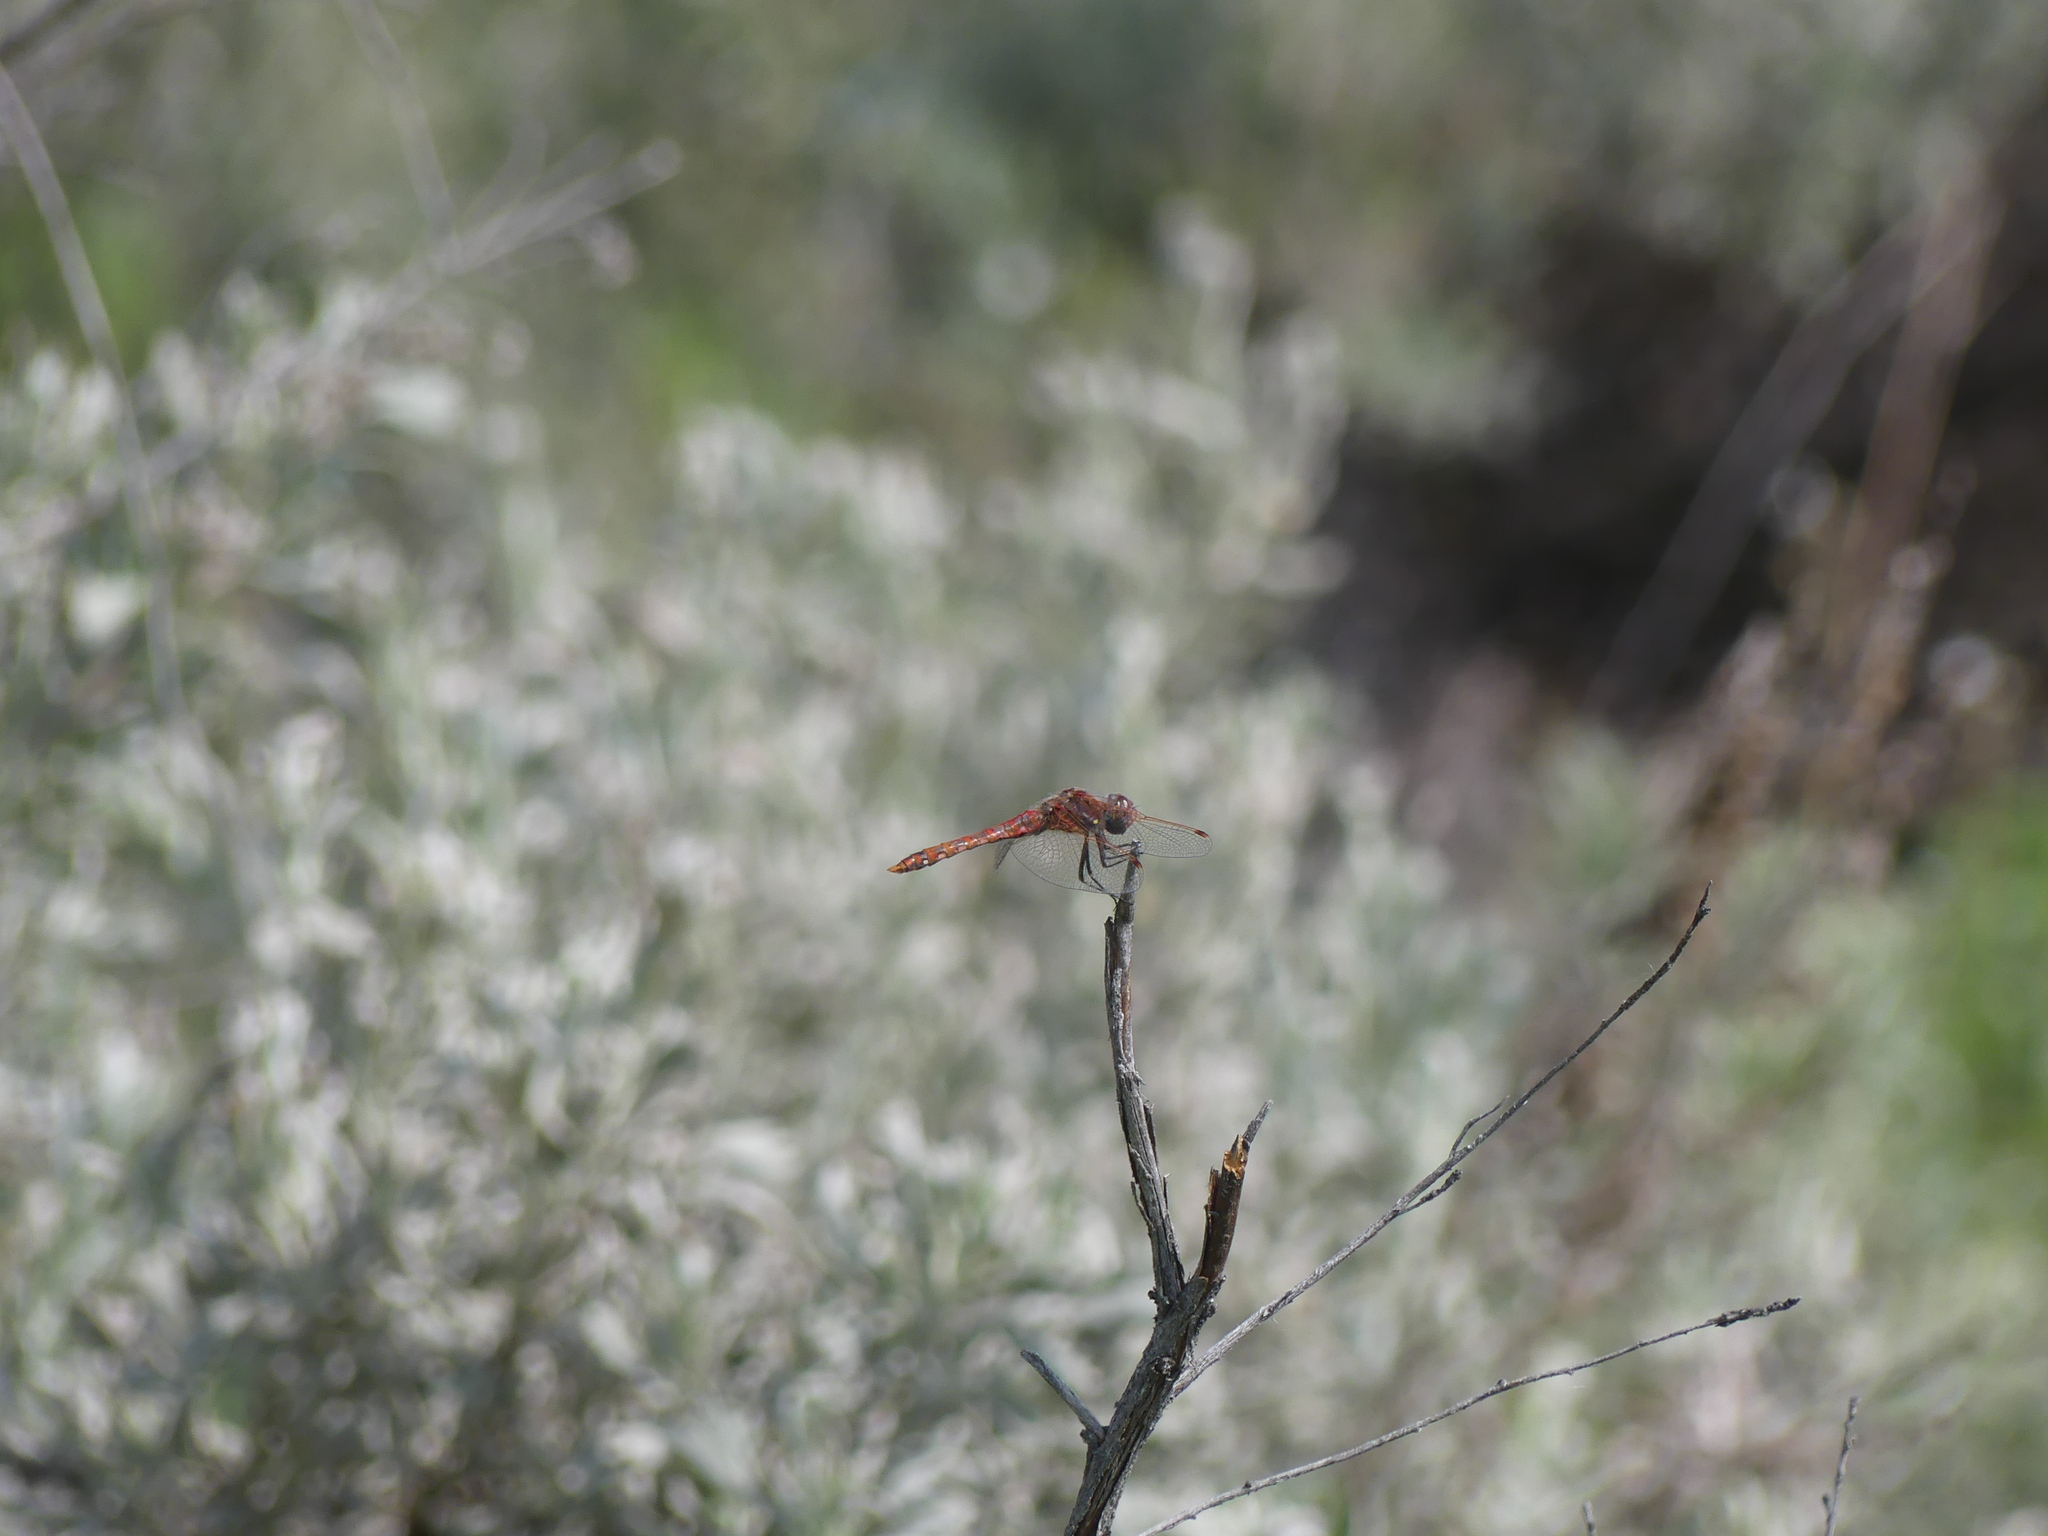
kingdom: Animalia
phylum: Arthropoda
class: Insecta
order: Odonata
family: Libellulidae
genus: Sympetrum
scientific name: Sympetrum corruptum
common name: Variegated meadowhawk
